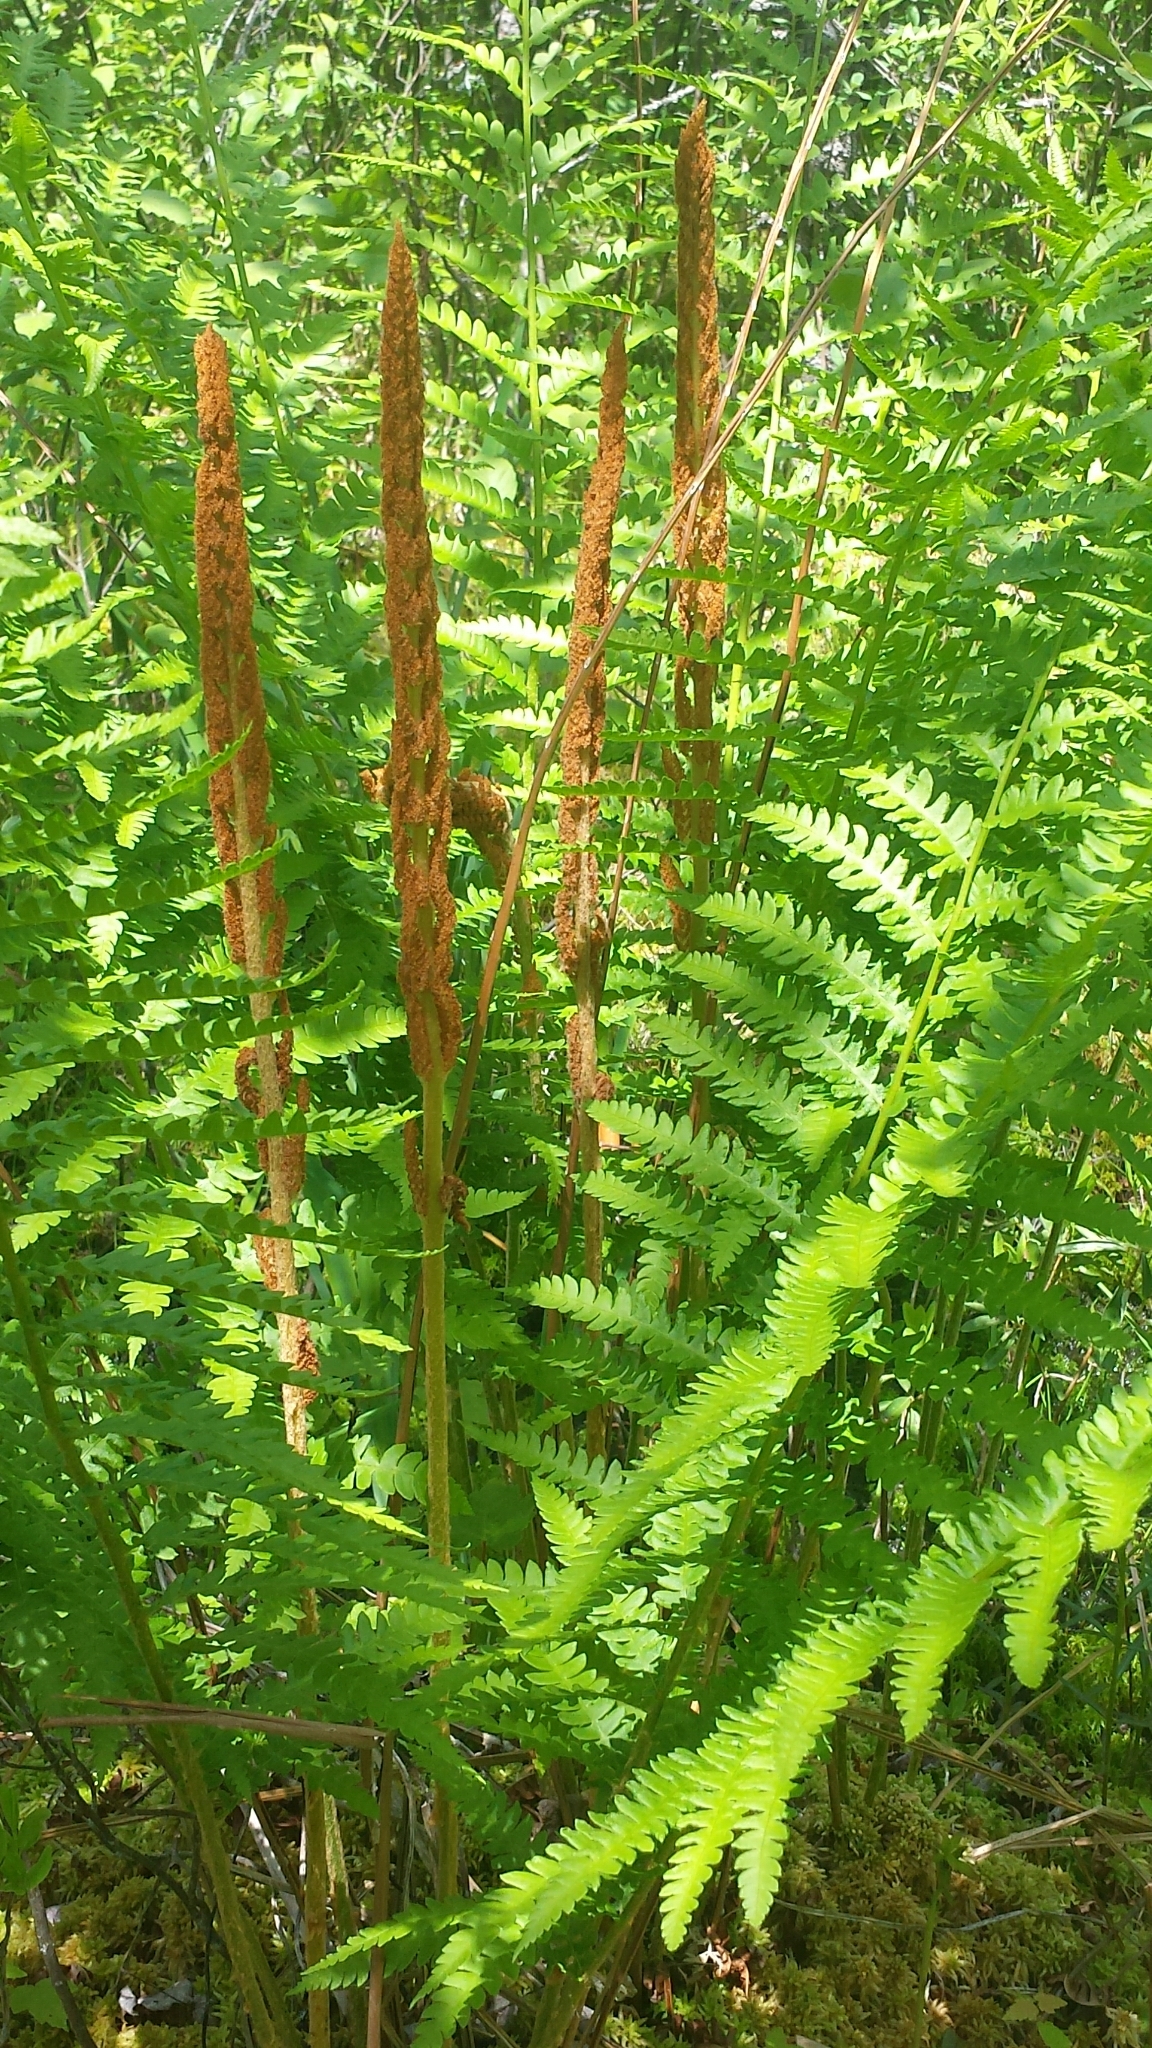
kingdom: Plantae
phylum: Tracheophyta
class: Polypodiopsida
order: Osmundales
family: Osmundaceae
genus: Osmundastrum
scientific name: Osmundastrum cinnamomeum
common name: Cinnamon fern
